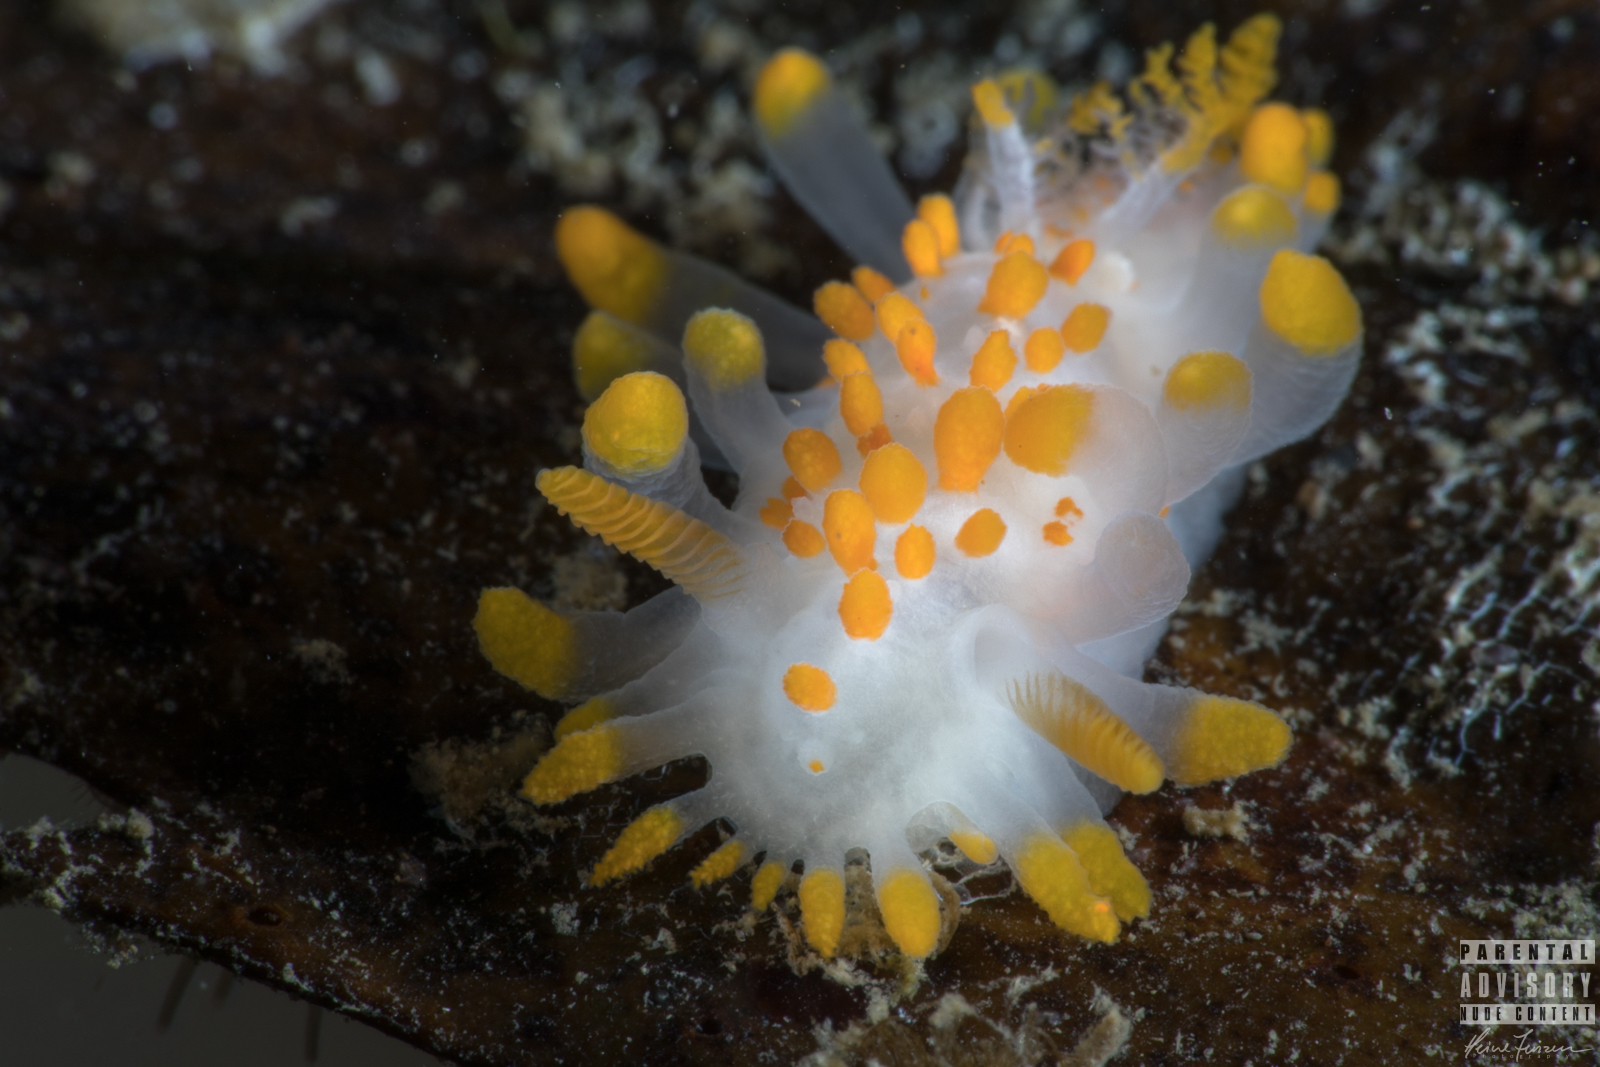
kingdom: Animalia
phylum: Mollusca
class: Gastropoda
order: Nudibranchia
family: Polyceridae
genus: Limacia
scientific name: Limacia clavigera
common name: Orange-clubbed sea slug
